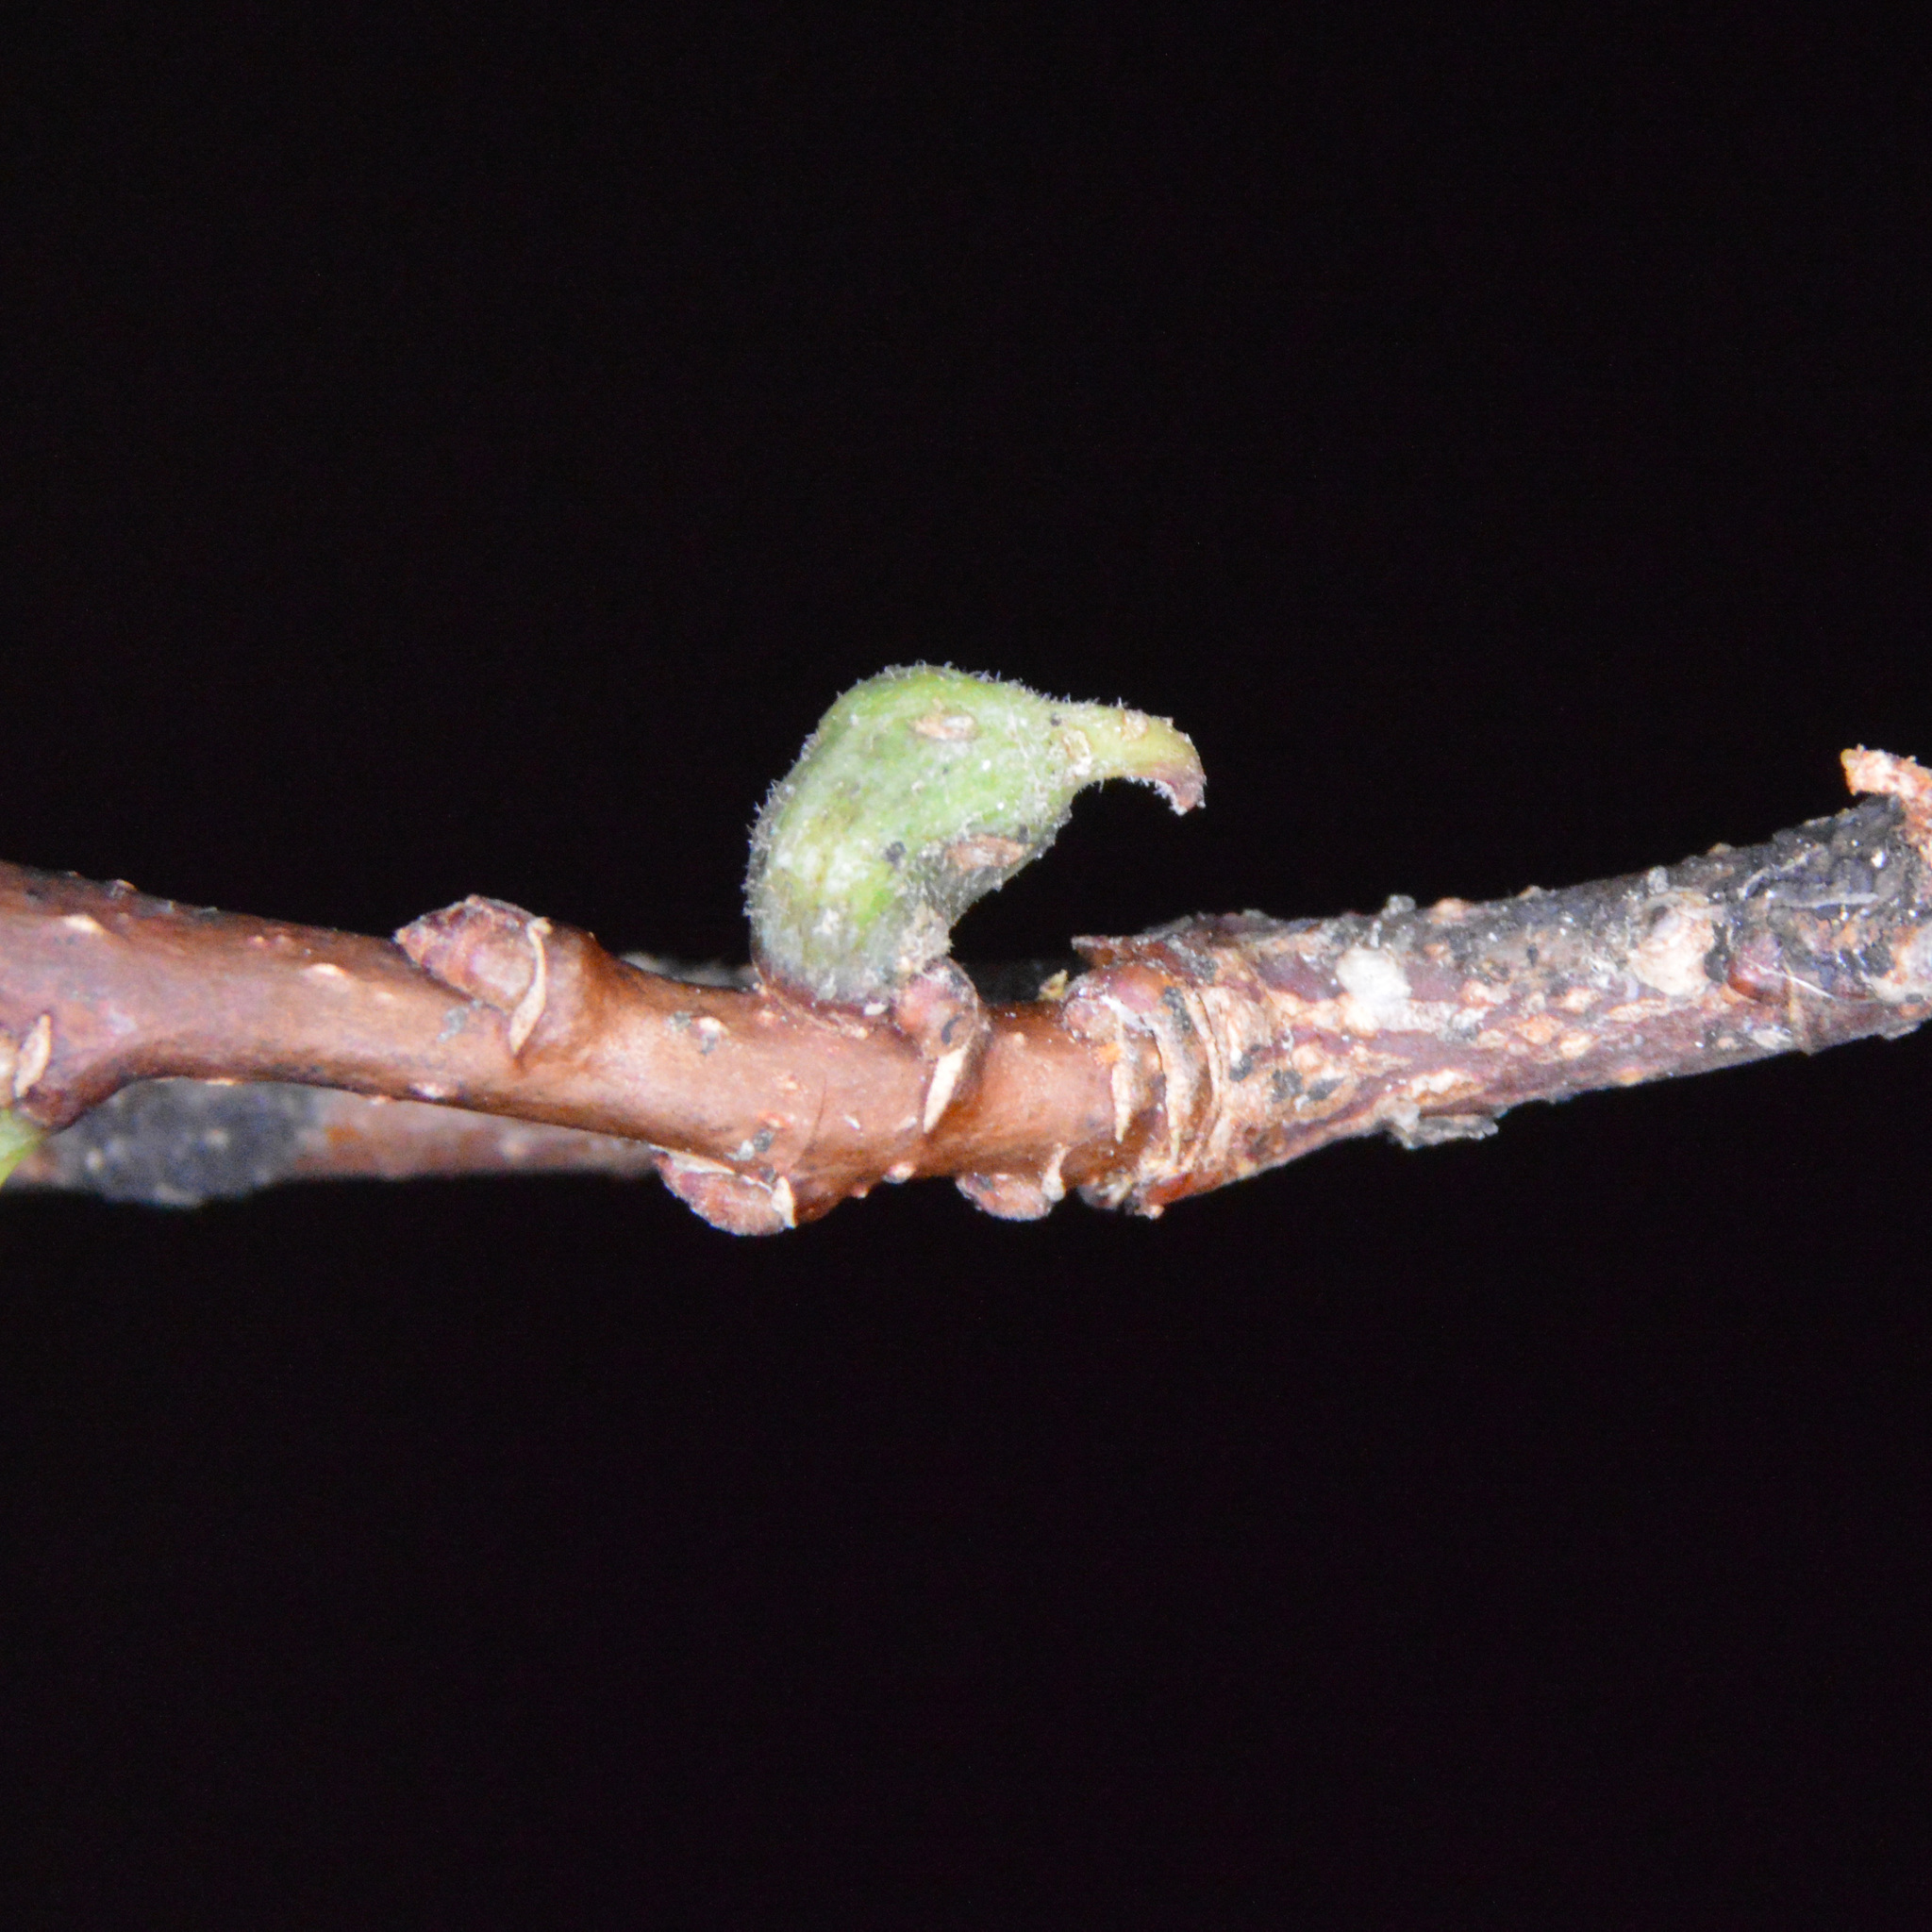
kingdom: Animalia
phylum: Arthropoda
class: Insecta
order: Diptera
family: Cecidomyiidae
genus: Celticecis
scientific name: Celticecis ramicola
